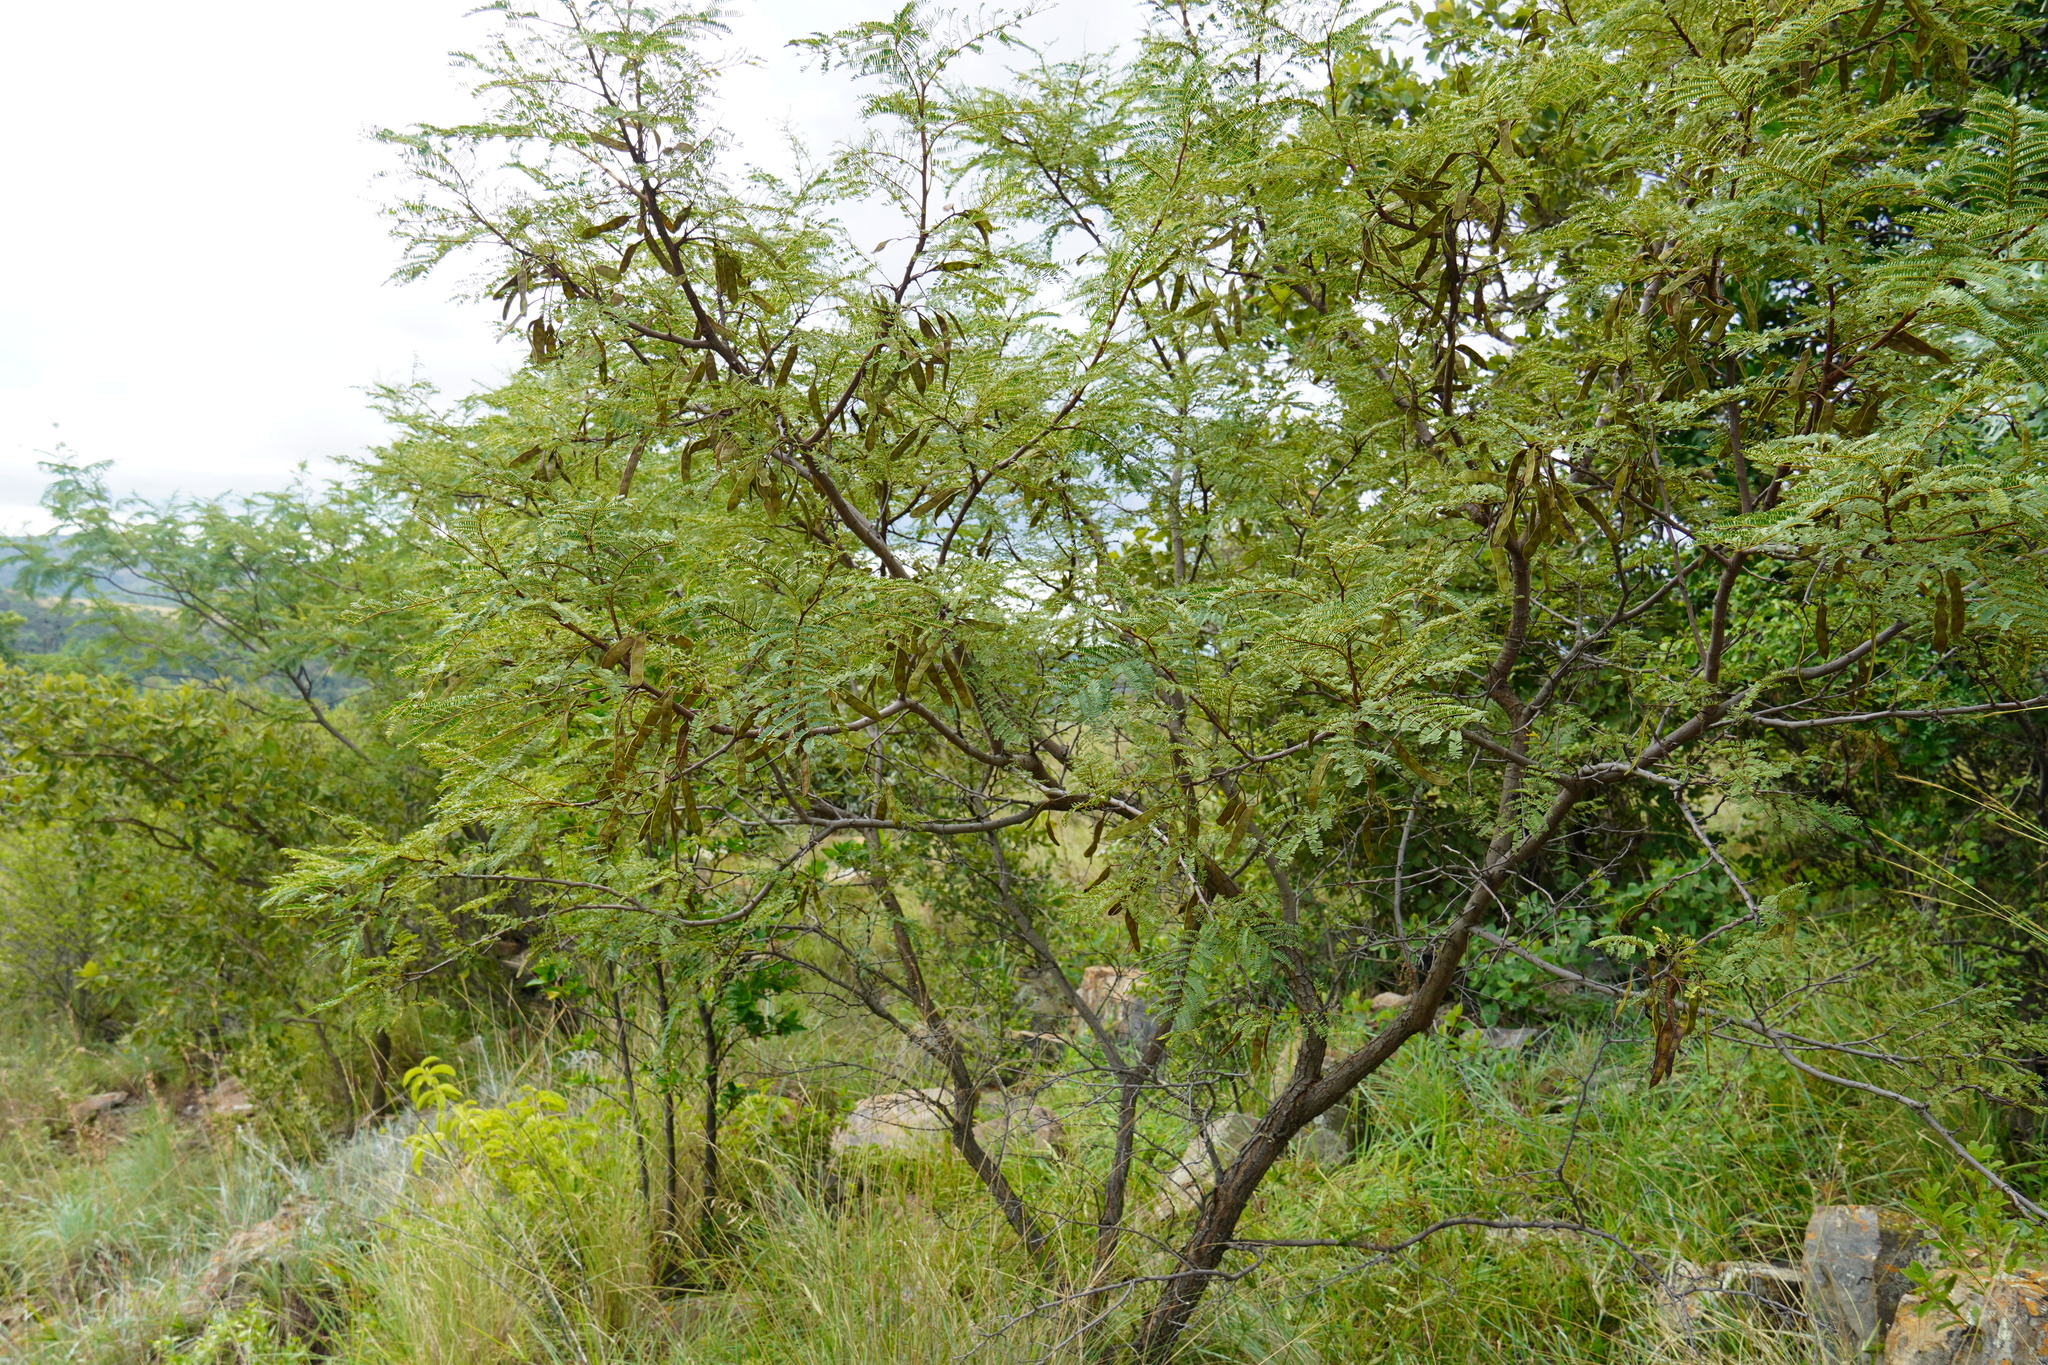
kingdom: Plantae
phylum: Tracheophyta
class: Magnoliopsida
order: Fabales
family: Fabaceae
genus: Senegalia
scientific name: Senegalia caffra
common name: Cat thorn
